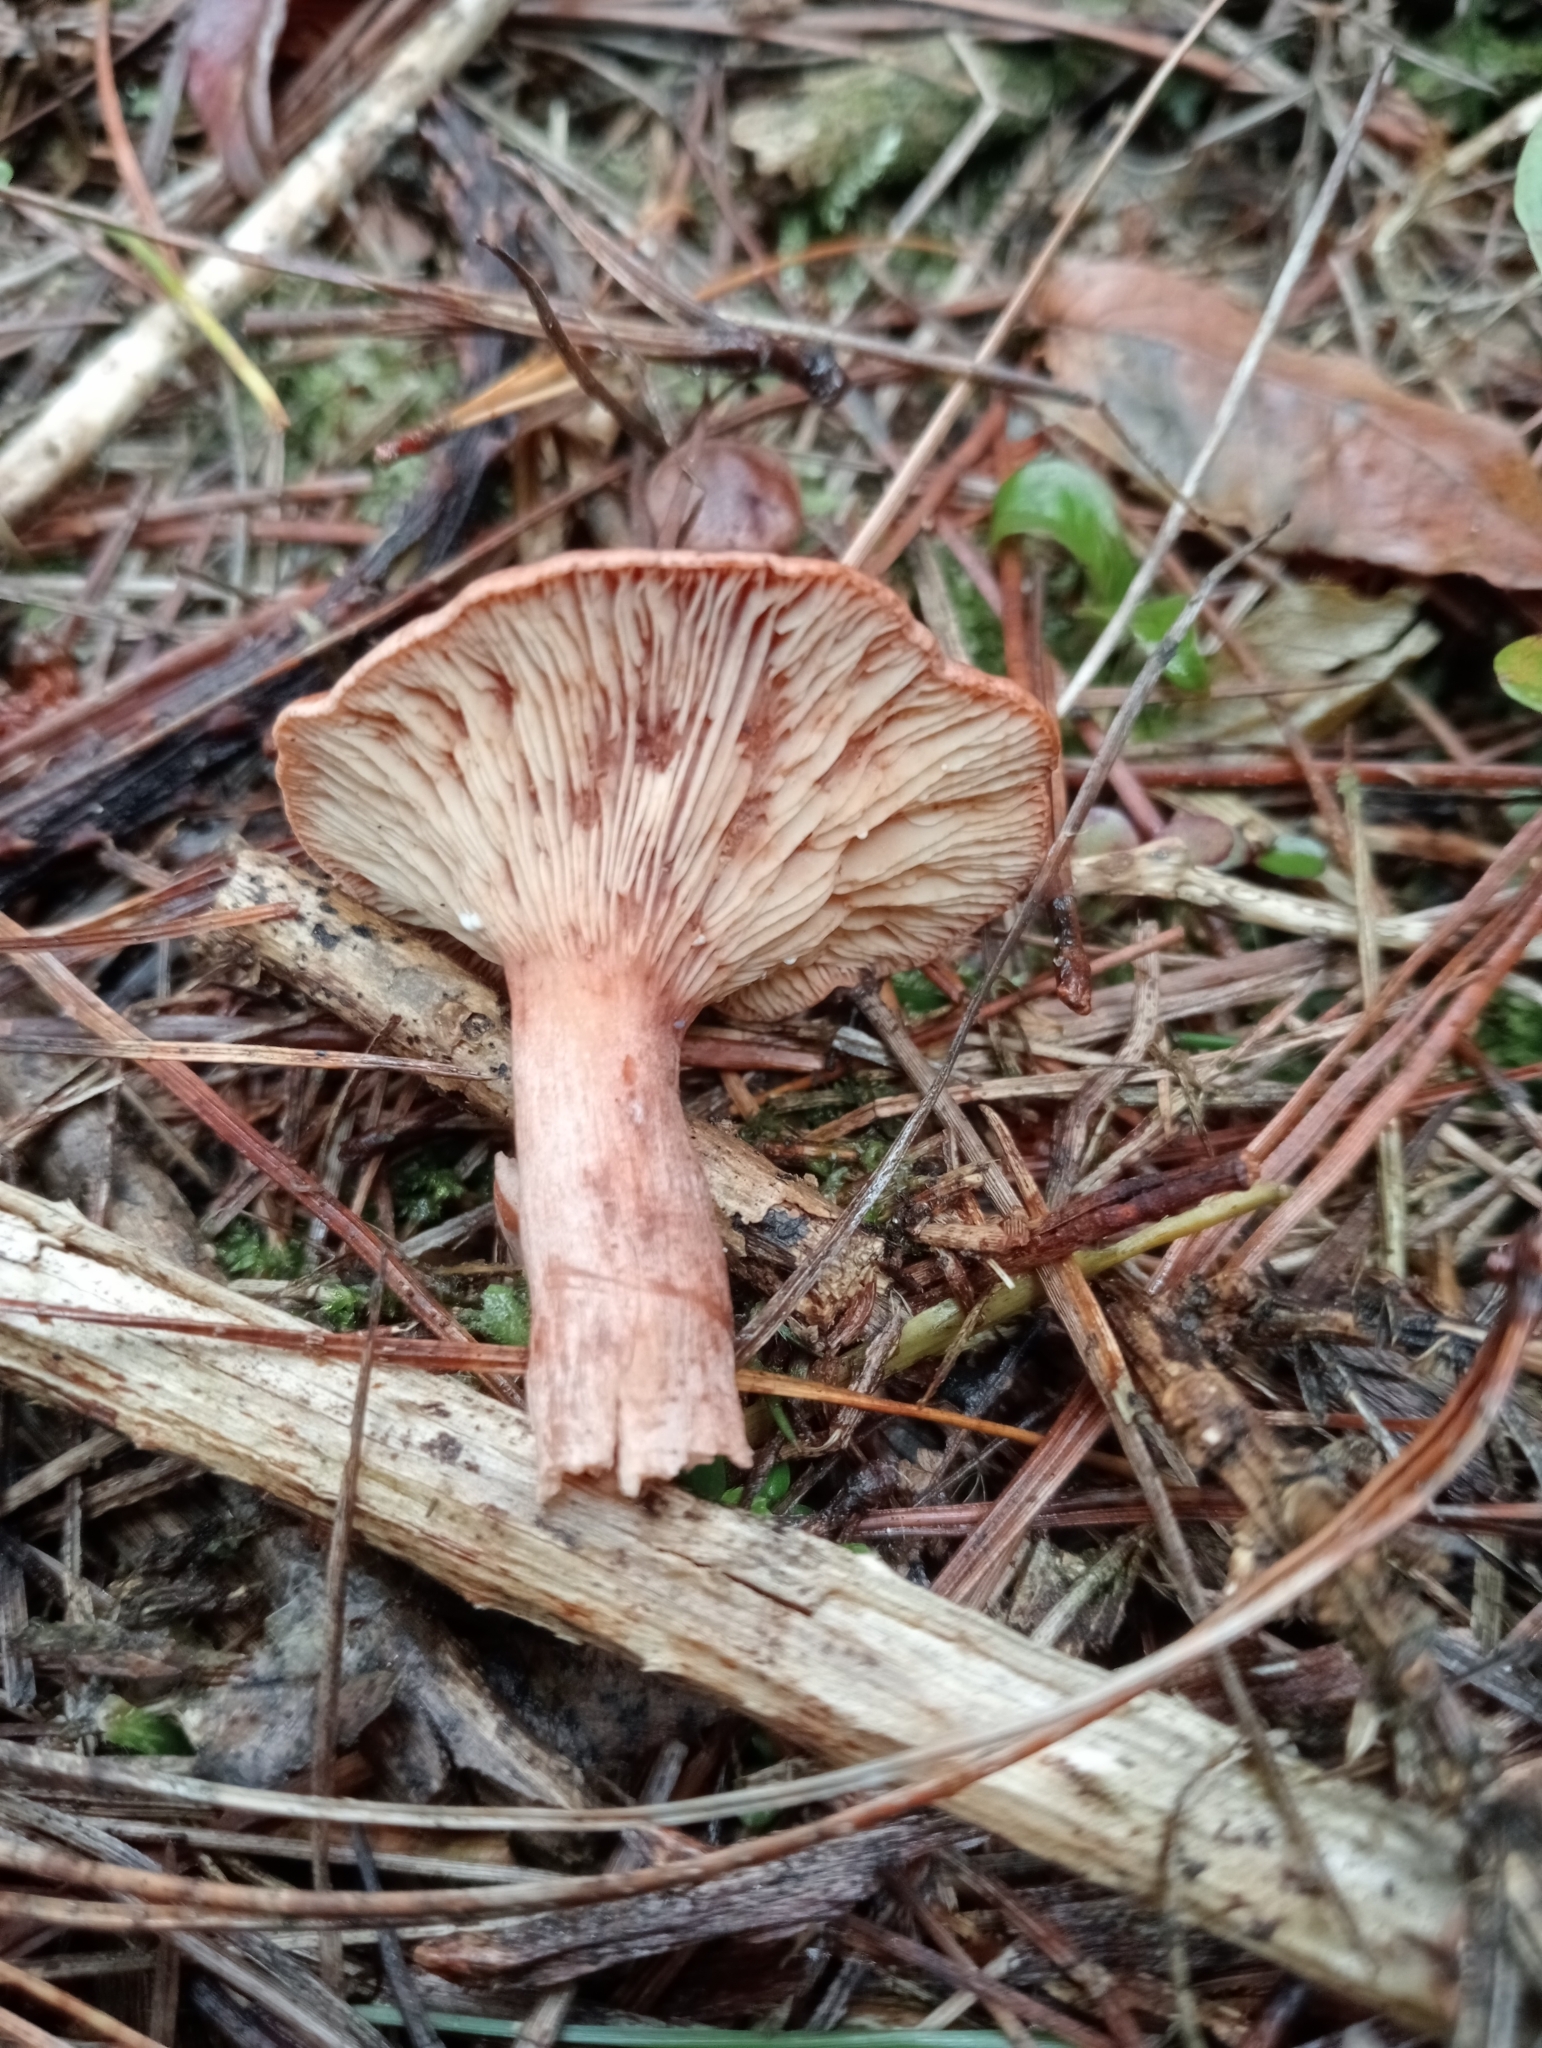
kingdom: Fungi
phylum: Basidiomycota
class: Agaricomycetes
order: Russulales
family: Russulaceae
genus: Lactarius
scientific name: Lactarius rufus
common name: Rufous milk-cap
